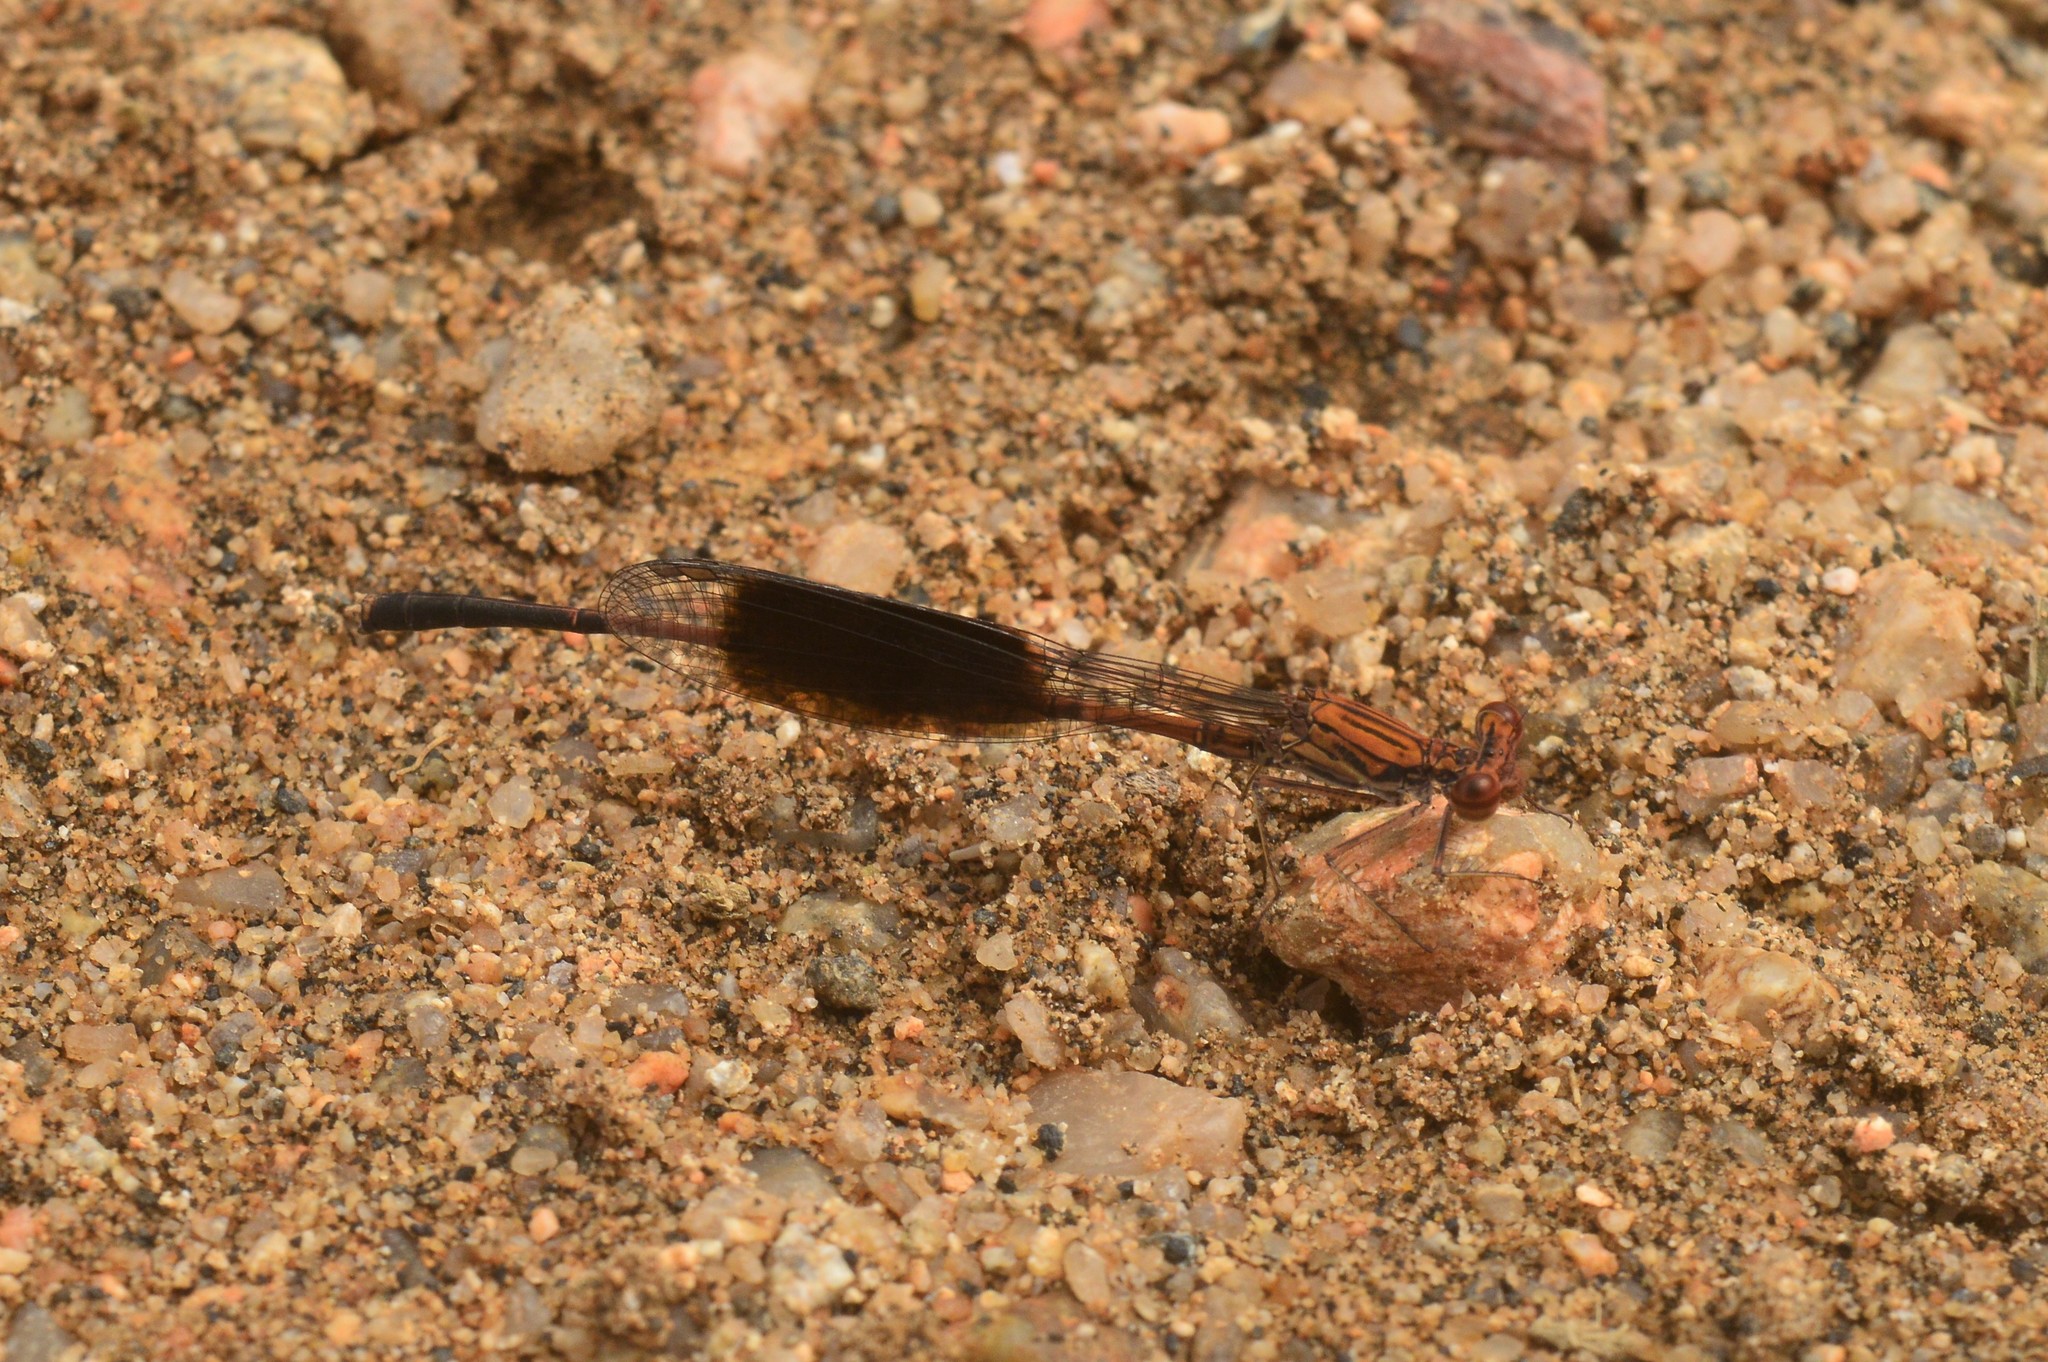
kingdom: Animalia
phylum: Arthropoda
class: Insecta
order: Odonata
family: Platycnemididae
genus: Disparoneura
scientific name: Disparoneura quadrimaculata
